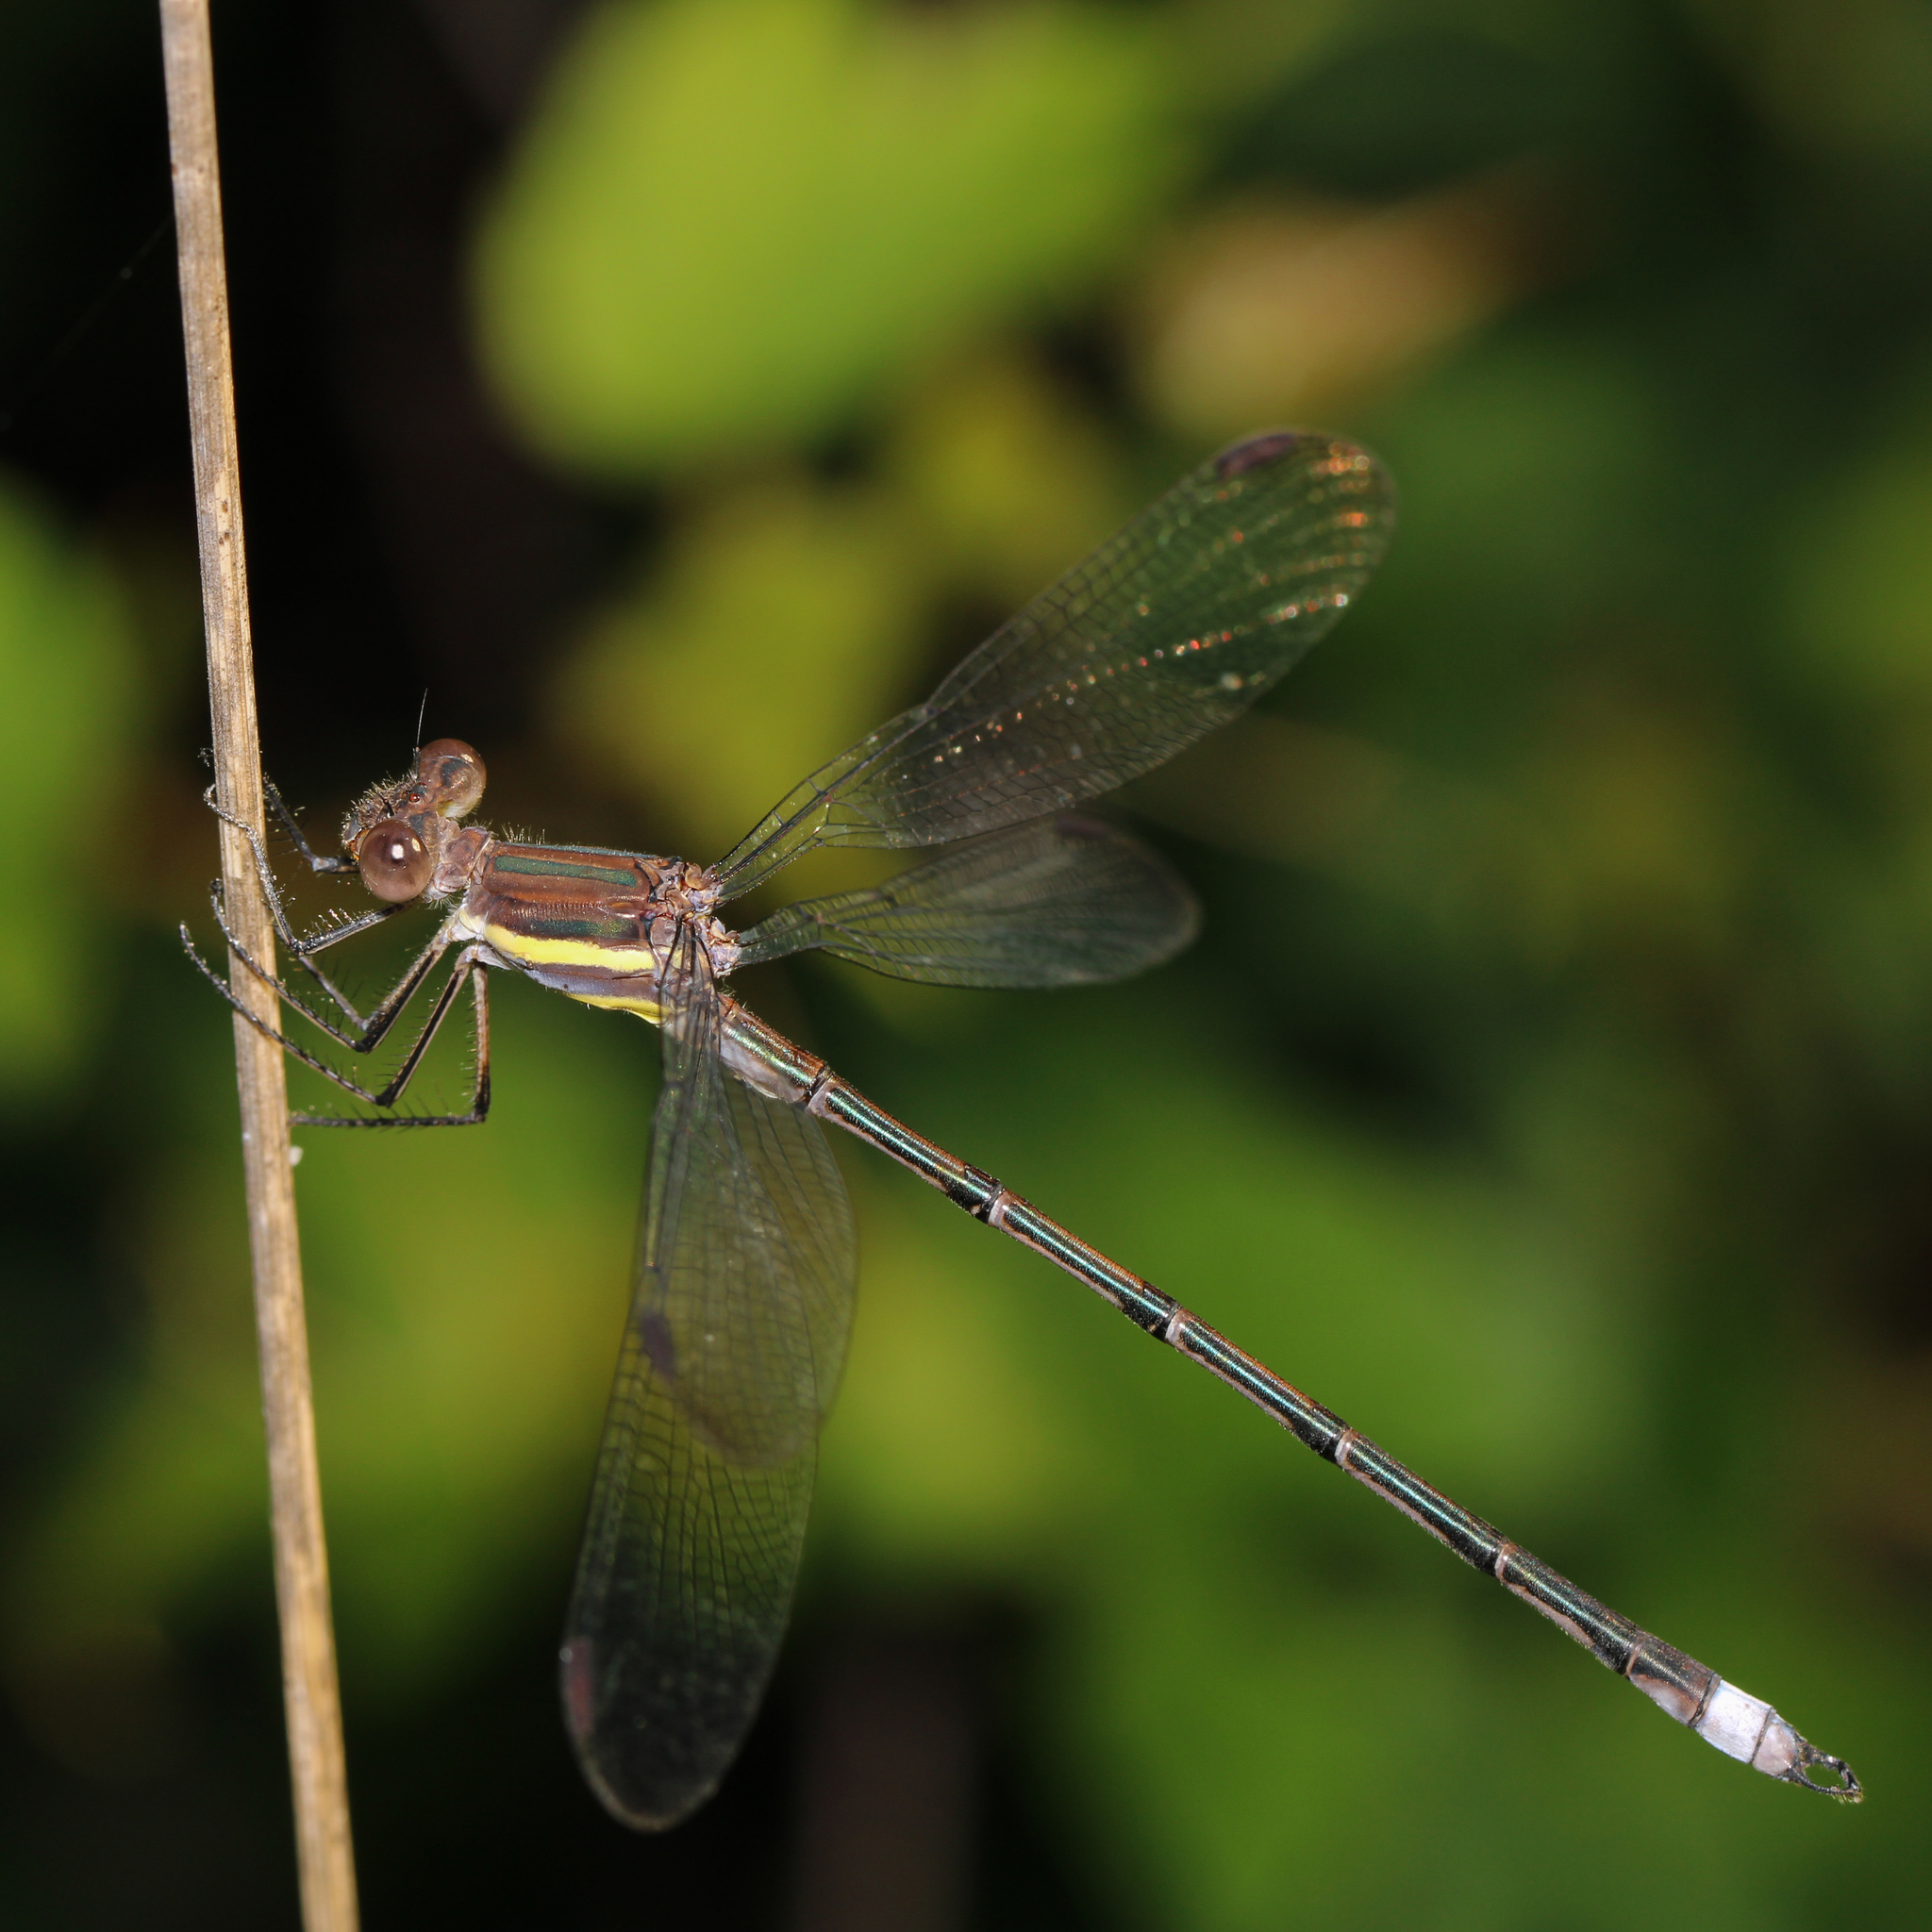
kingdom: Animalia
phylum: Arthropoda
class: Insecta
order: Odonata
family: Lestidae
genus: Archilestes
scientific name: Archilestes grandis
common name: Great spreadwing
